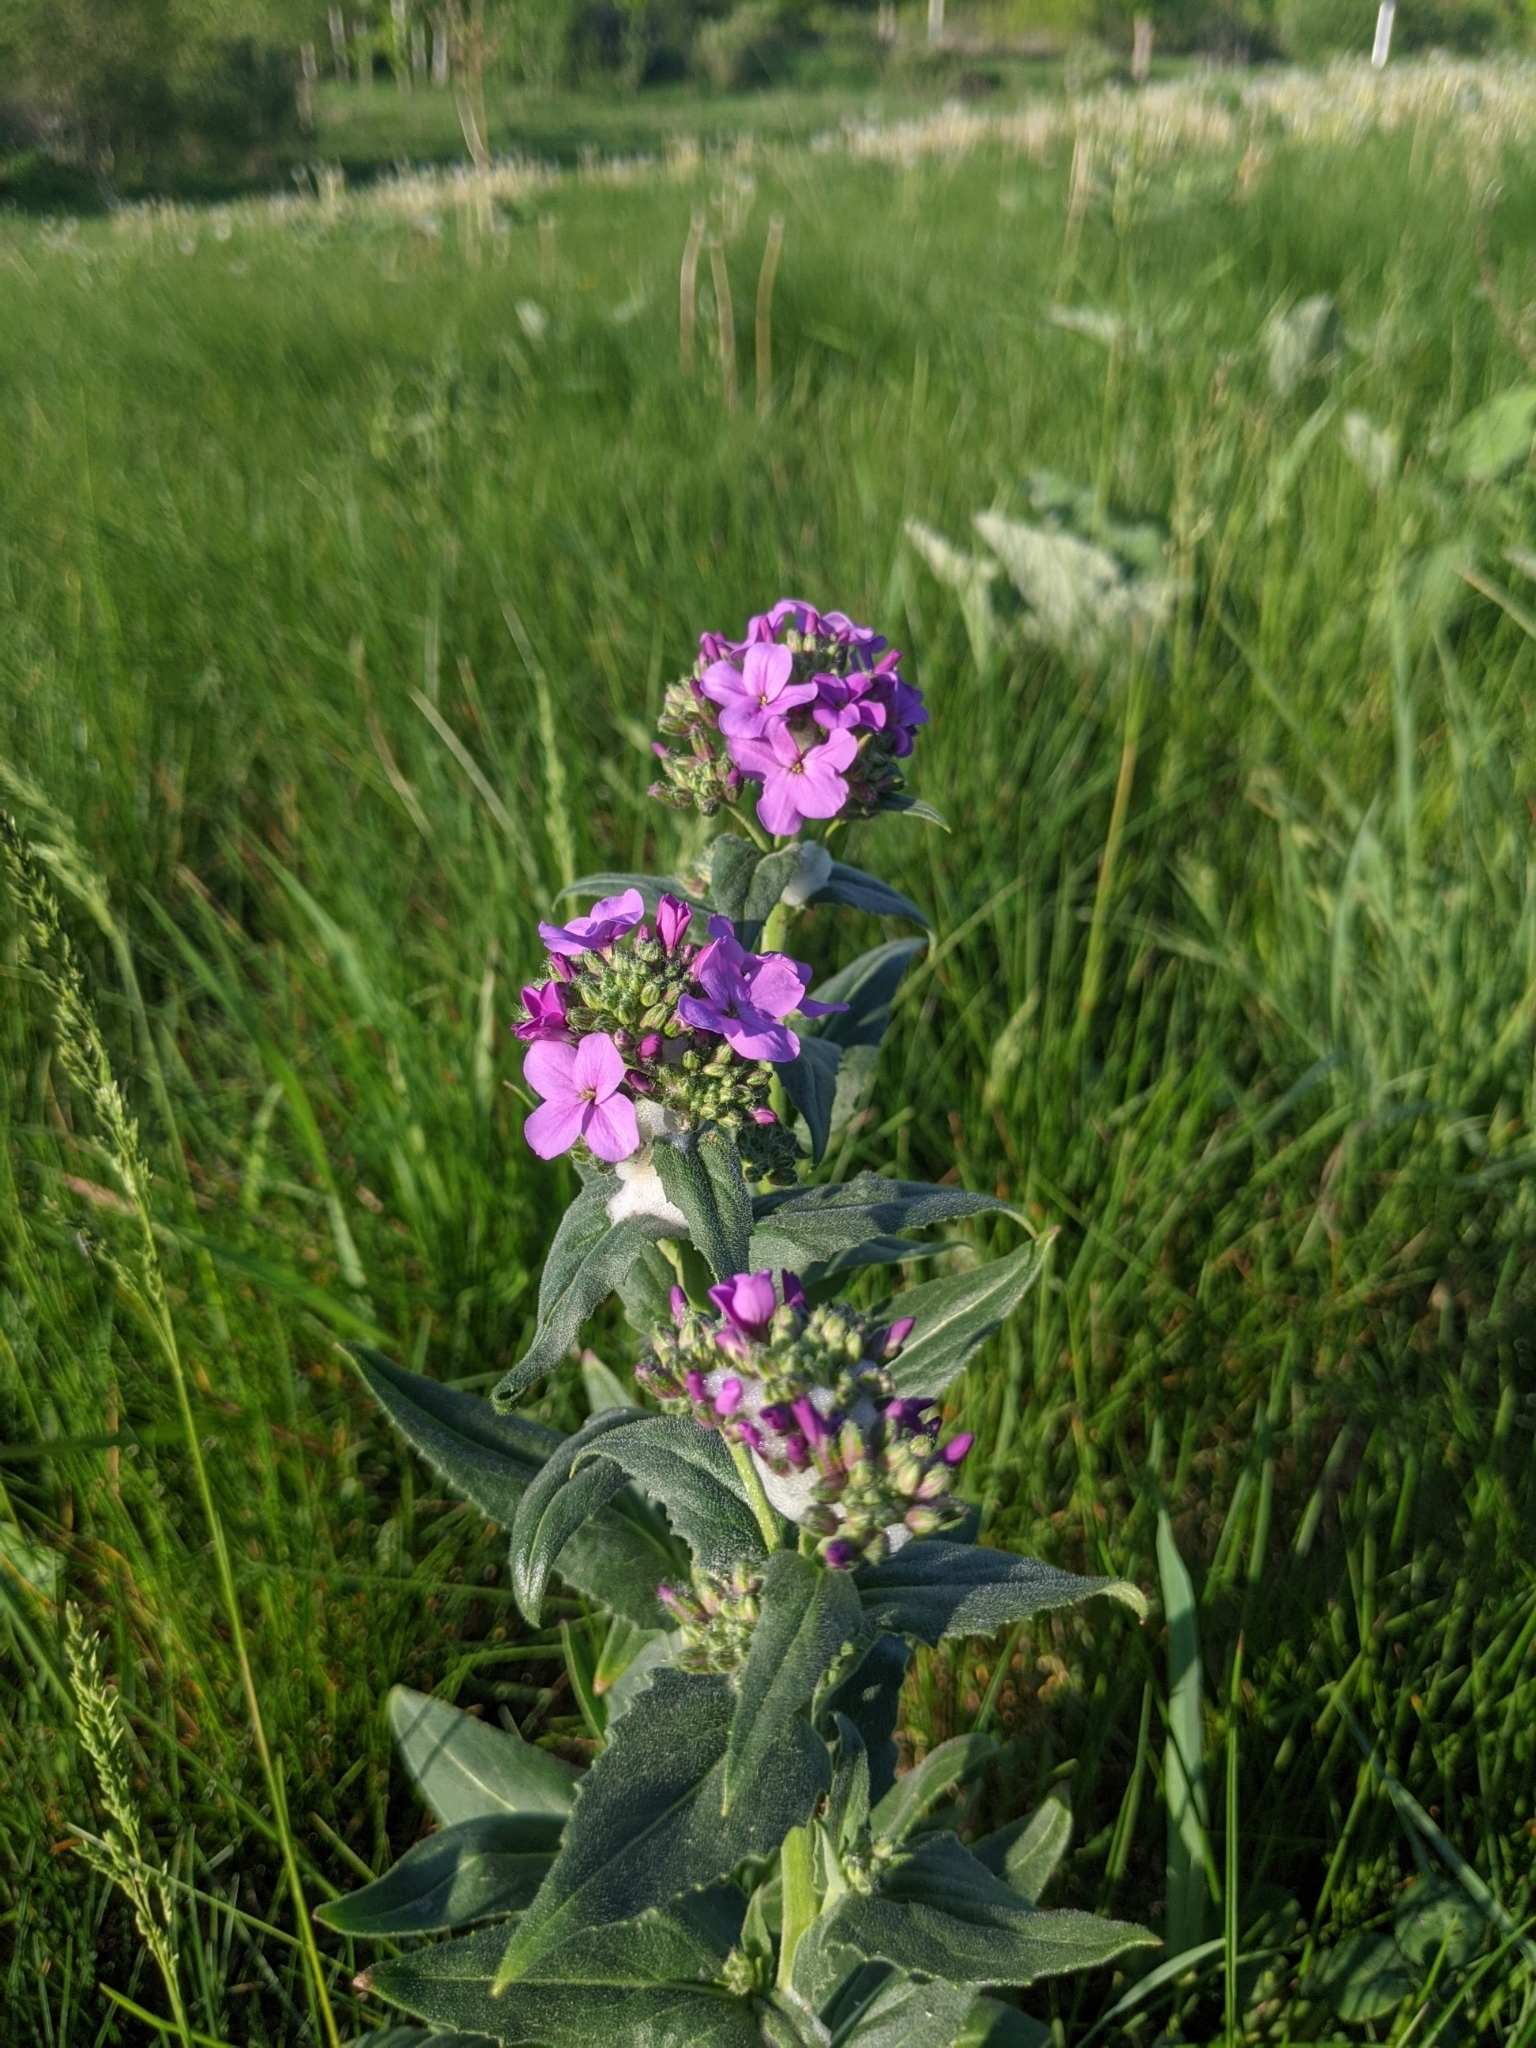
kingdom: Plantae
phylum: Tracheophyta
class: Magnoliopsida
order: Brassicales
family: Brassicaceae
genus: Hesperis
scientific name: Hesperis matronalis
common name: Dame's-violet
